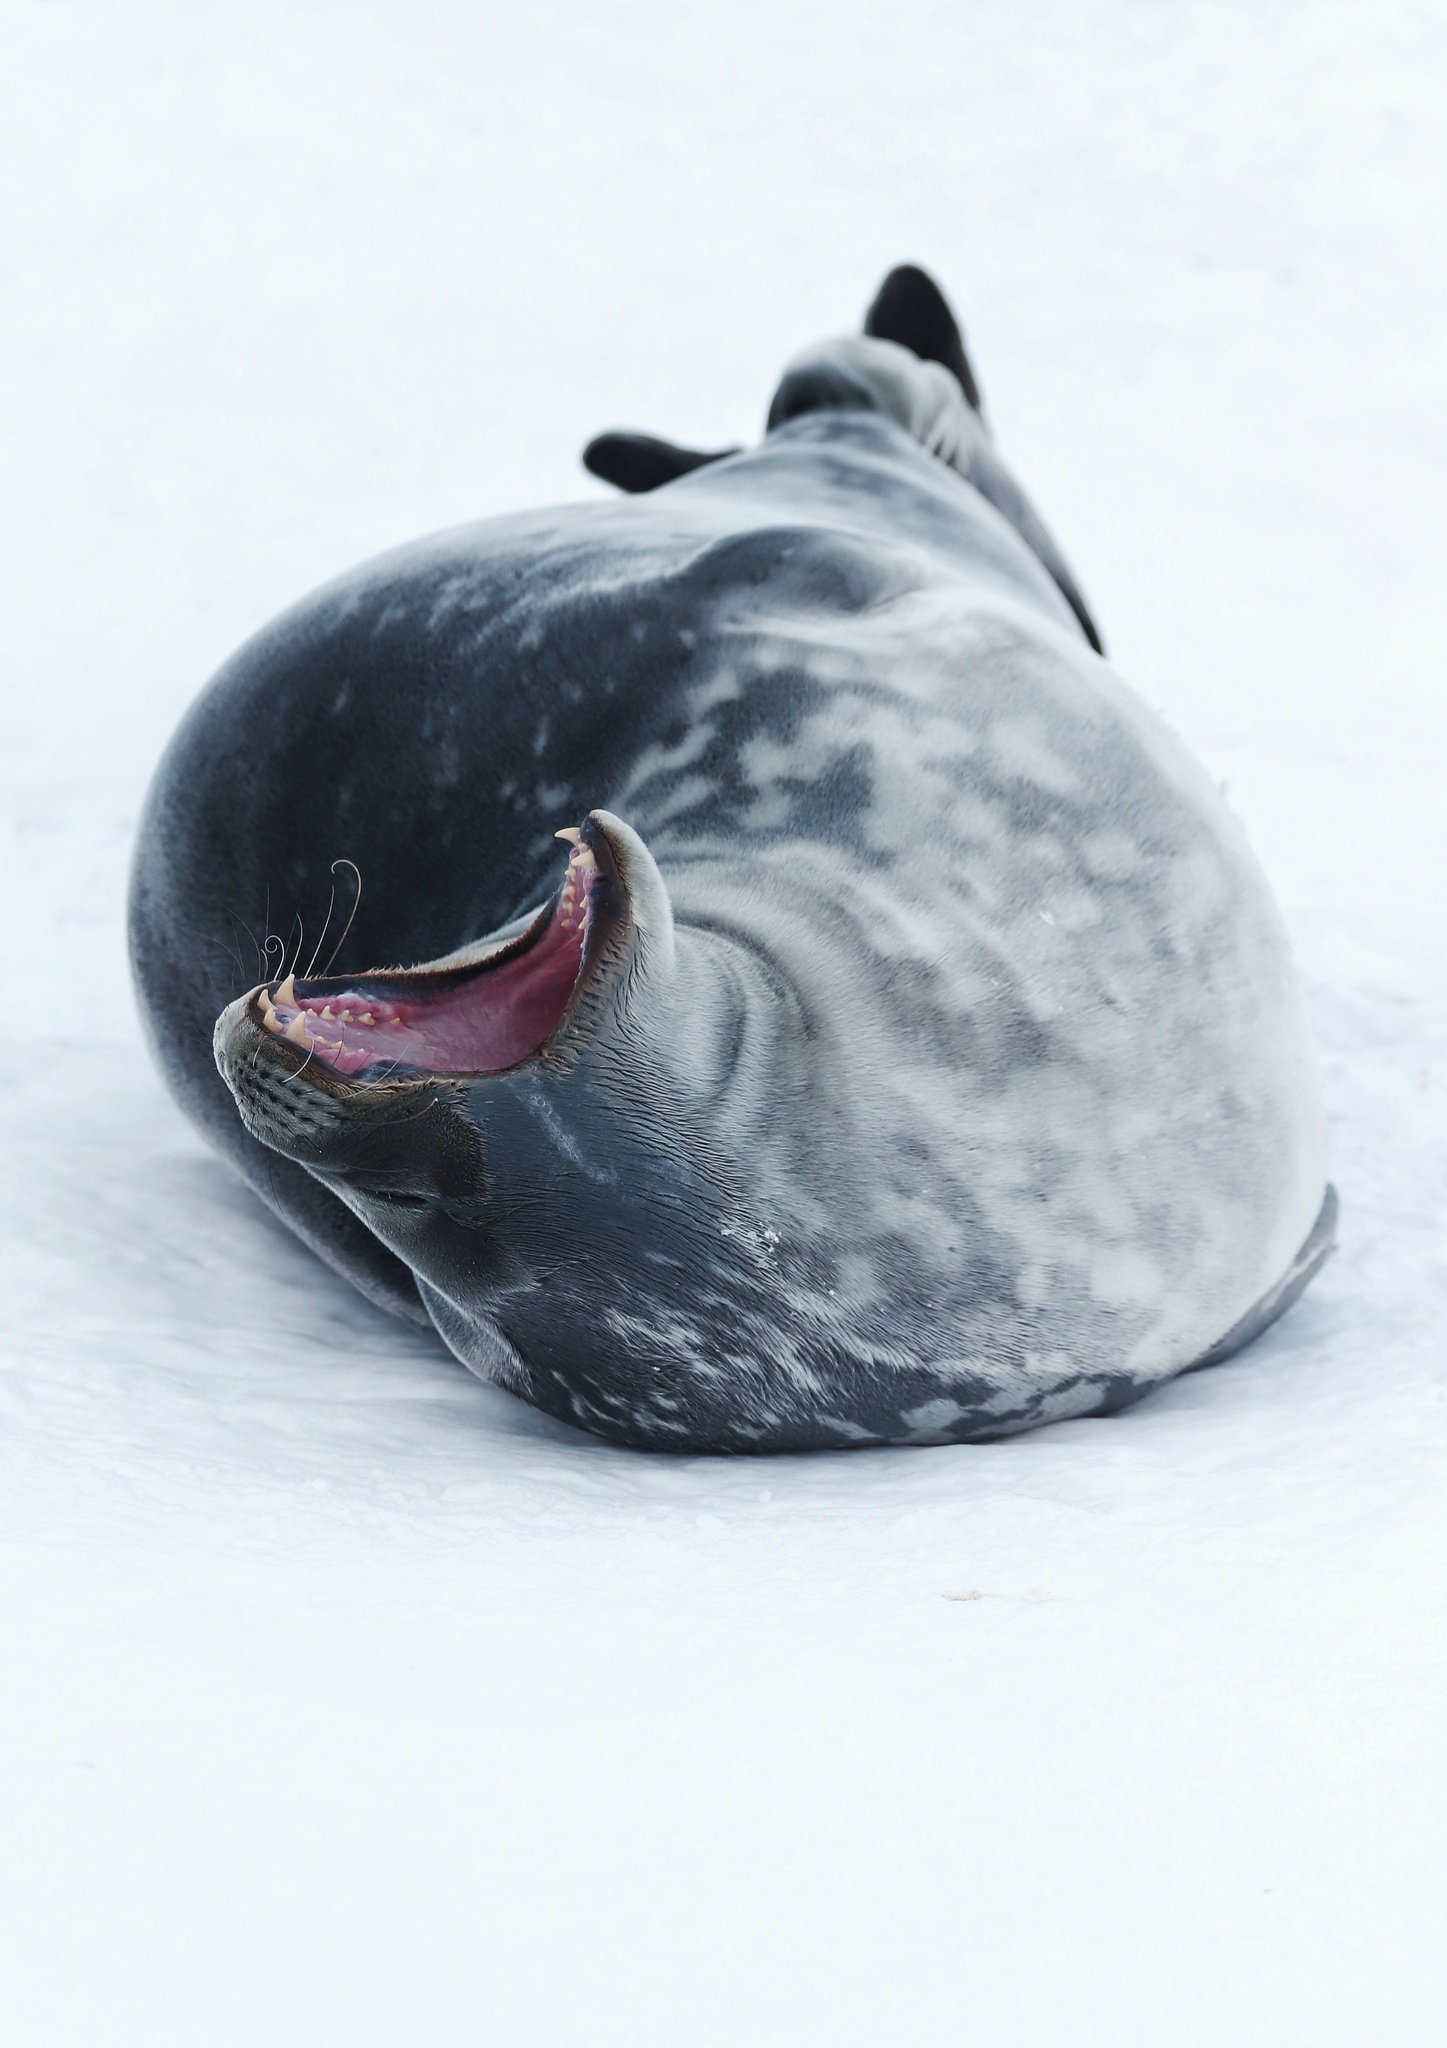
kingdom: Animalia
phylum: Chordata
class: Mammalia
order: Carnivora
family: Phocidae
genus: Leptonychotes
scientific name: Leptonychotes weddellii
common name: Weddell seal
